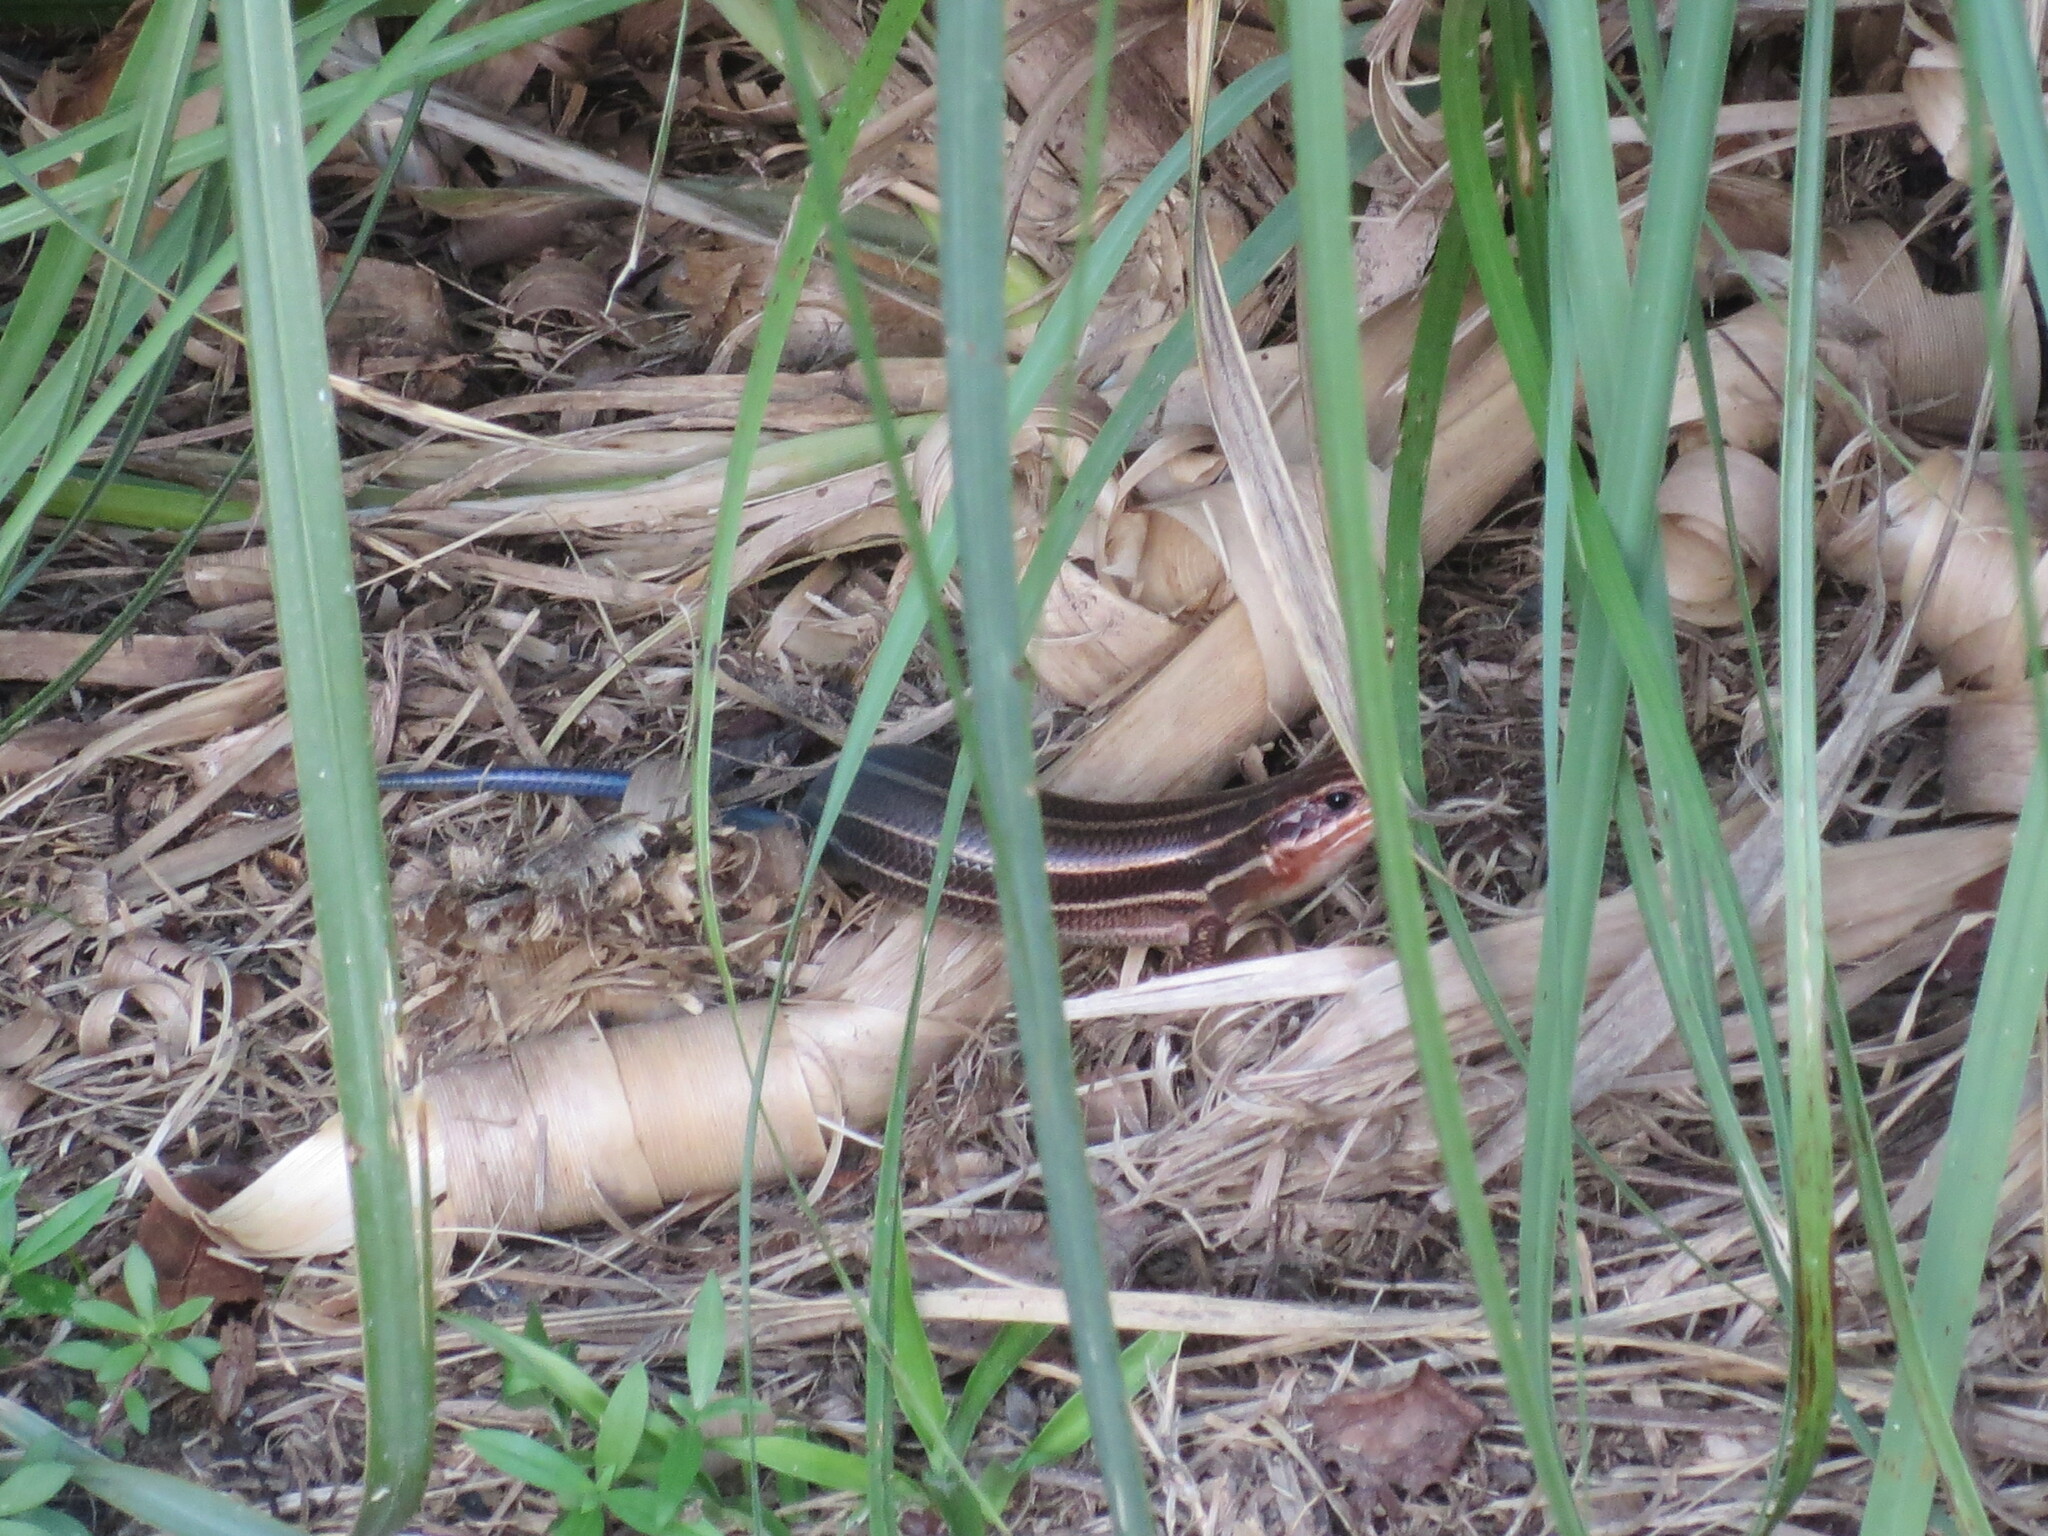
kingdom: Animalia
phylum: Chordata
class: Squamata
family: Scincidae
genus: Plestiodon
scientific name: Plestiodon laticeps
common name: Broadhead skink
